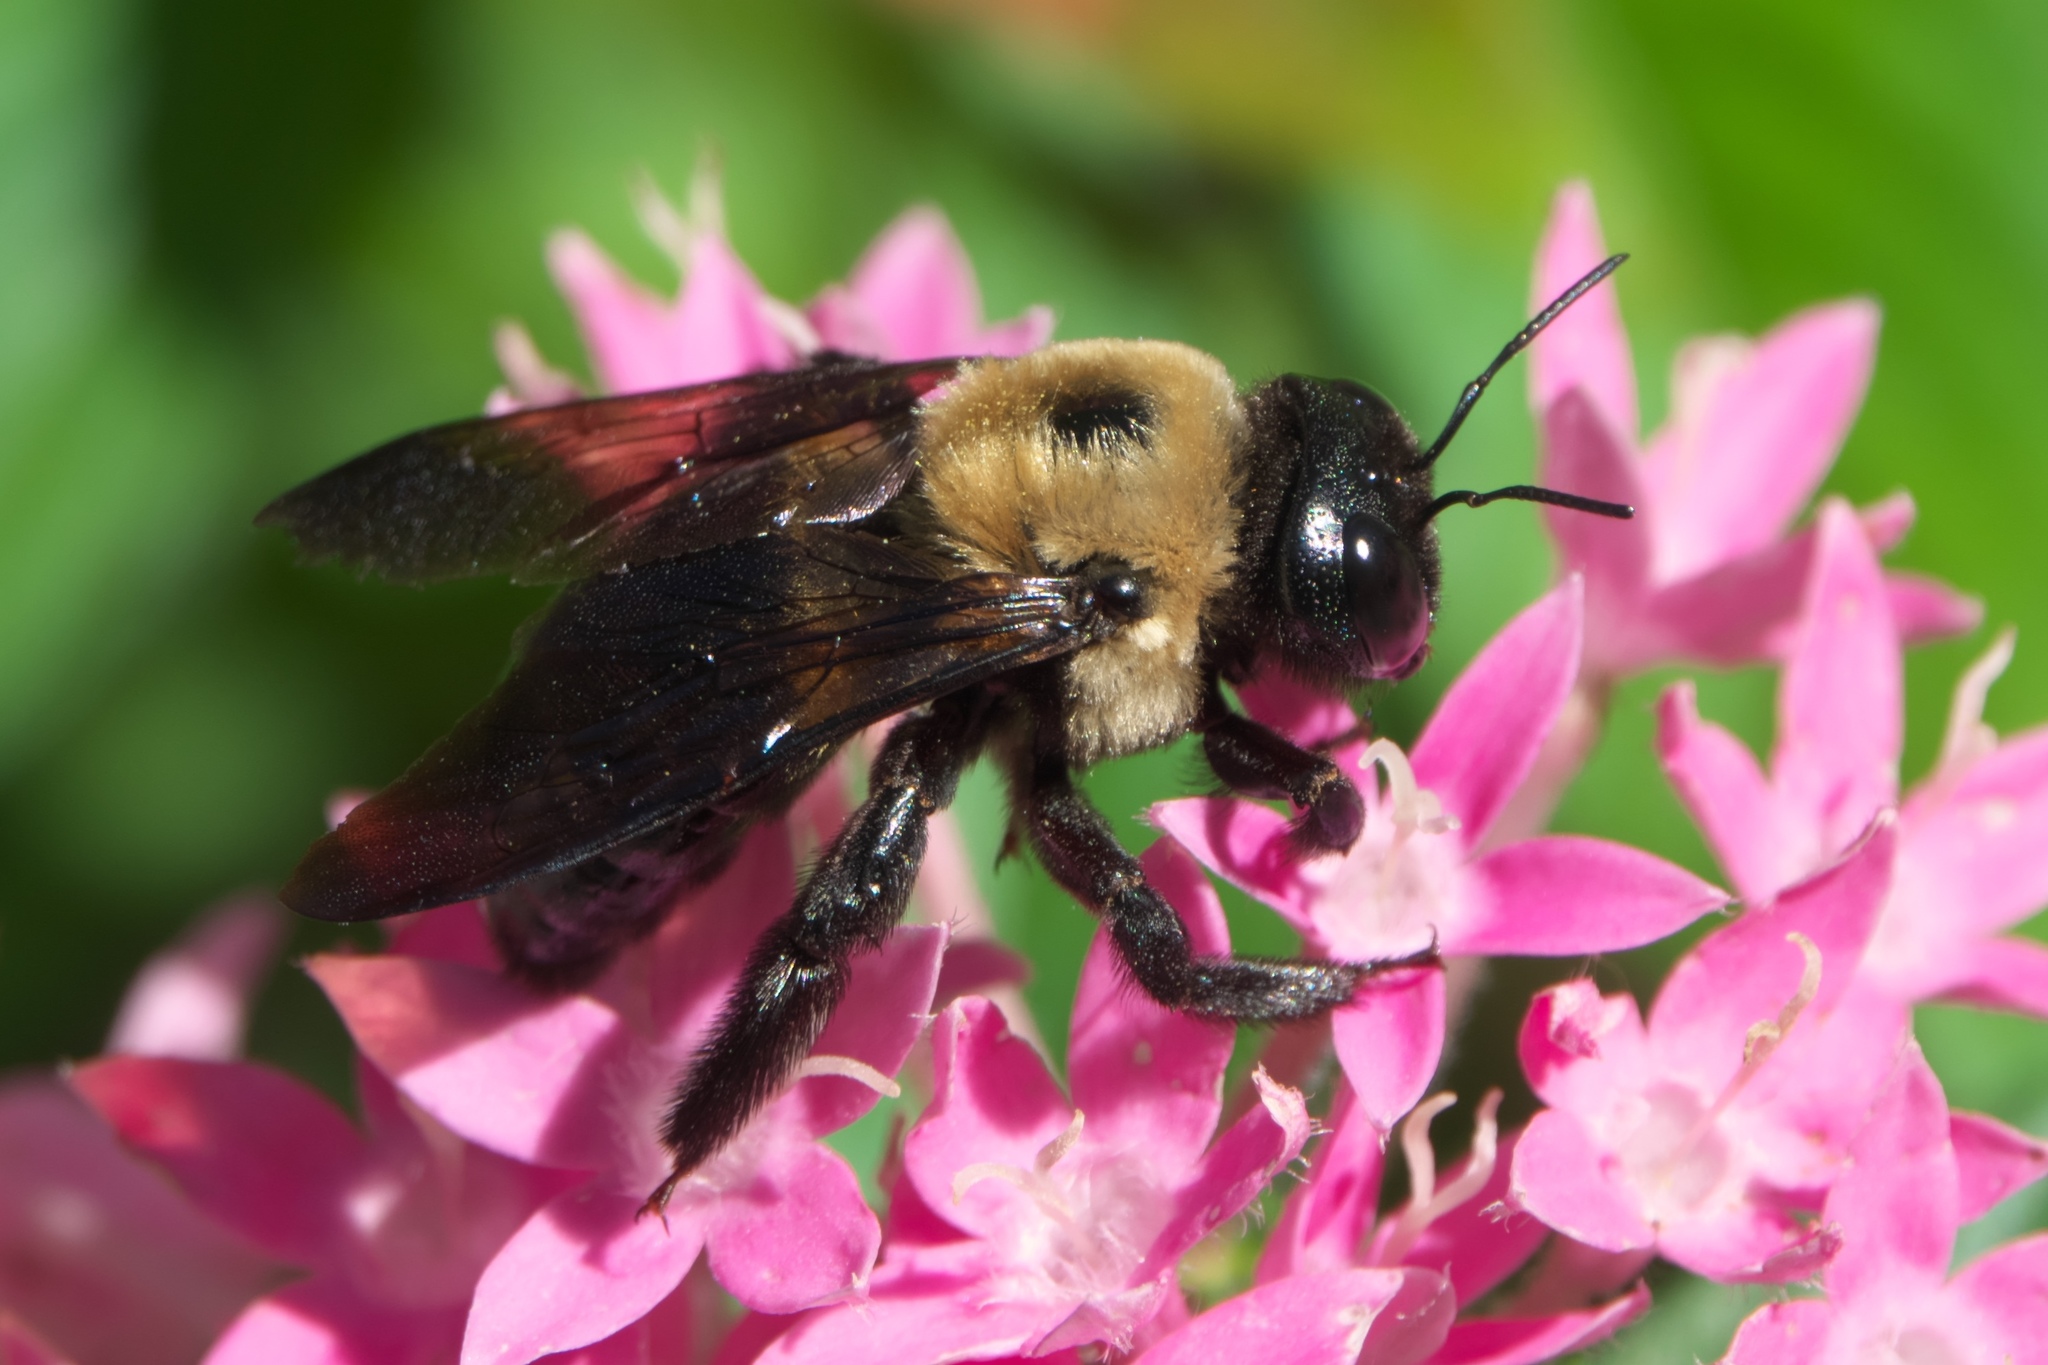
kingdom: Animalia
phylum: Arthropoda
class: Insecta
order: Hymenoptera
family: Apidae
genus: Xylocopa
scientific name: Xylocopa virginica
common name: Carpenter bee
